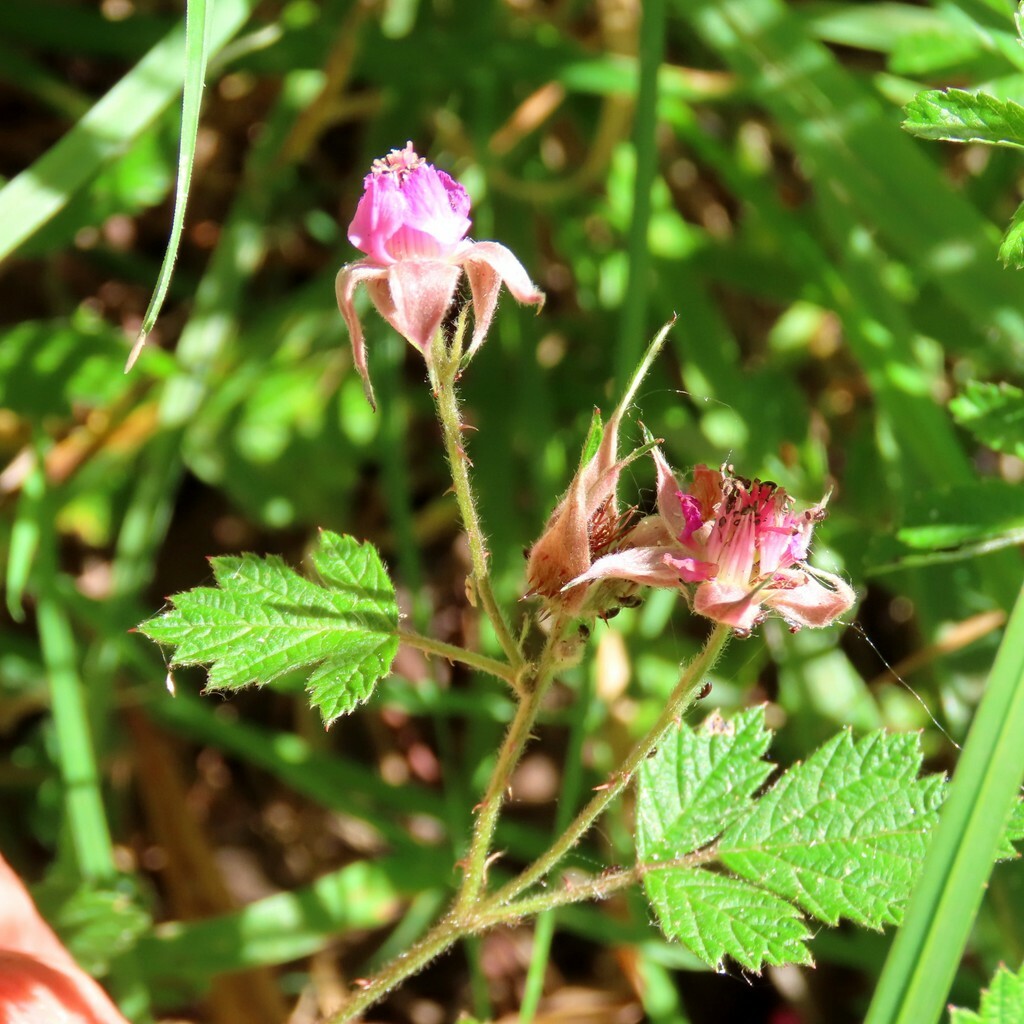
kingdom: Plantae
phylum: Tracheophyta
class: Magnoliopsida
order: Rosales
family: Rosaceae
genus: Rubus
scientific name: Rubus parvifolius
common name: Threeleaf blackberry
